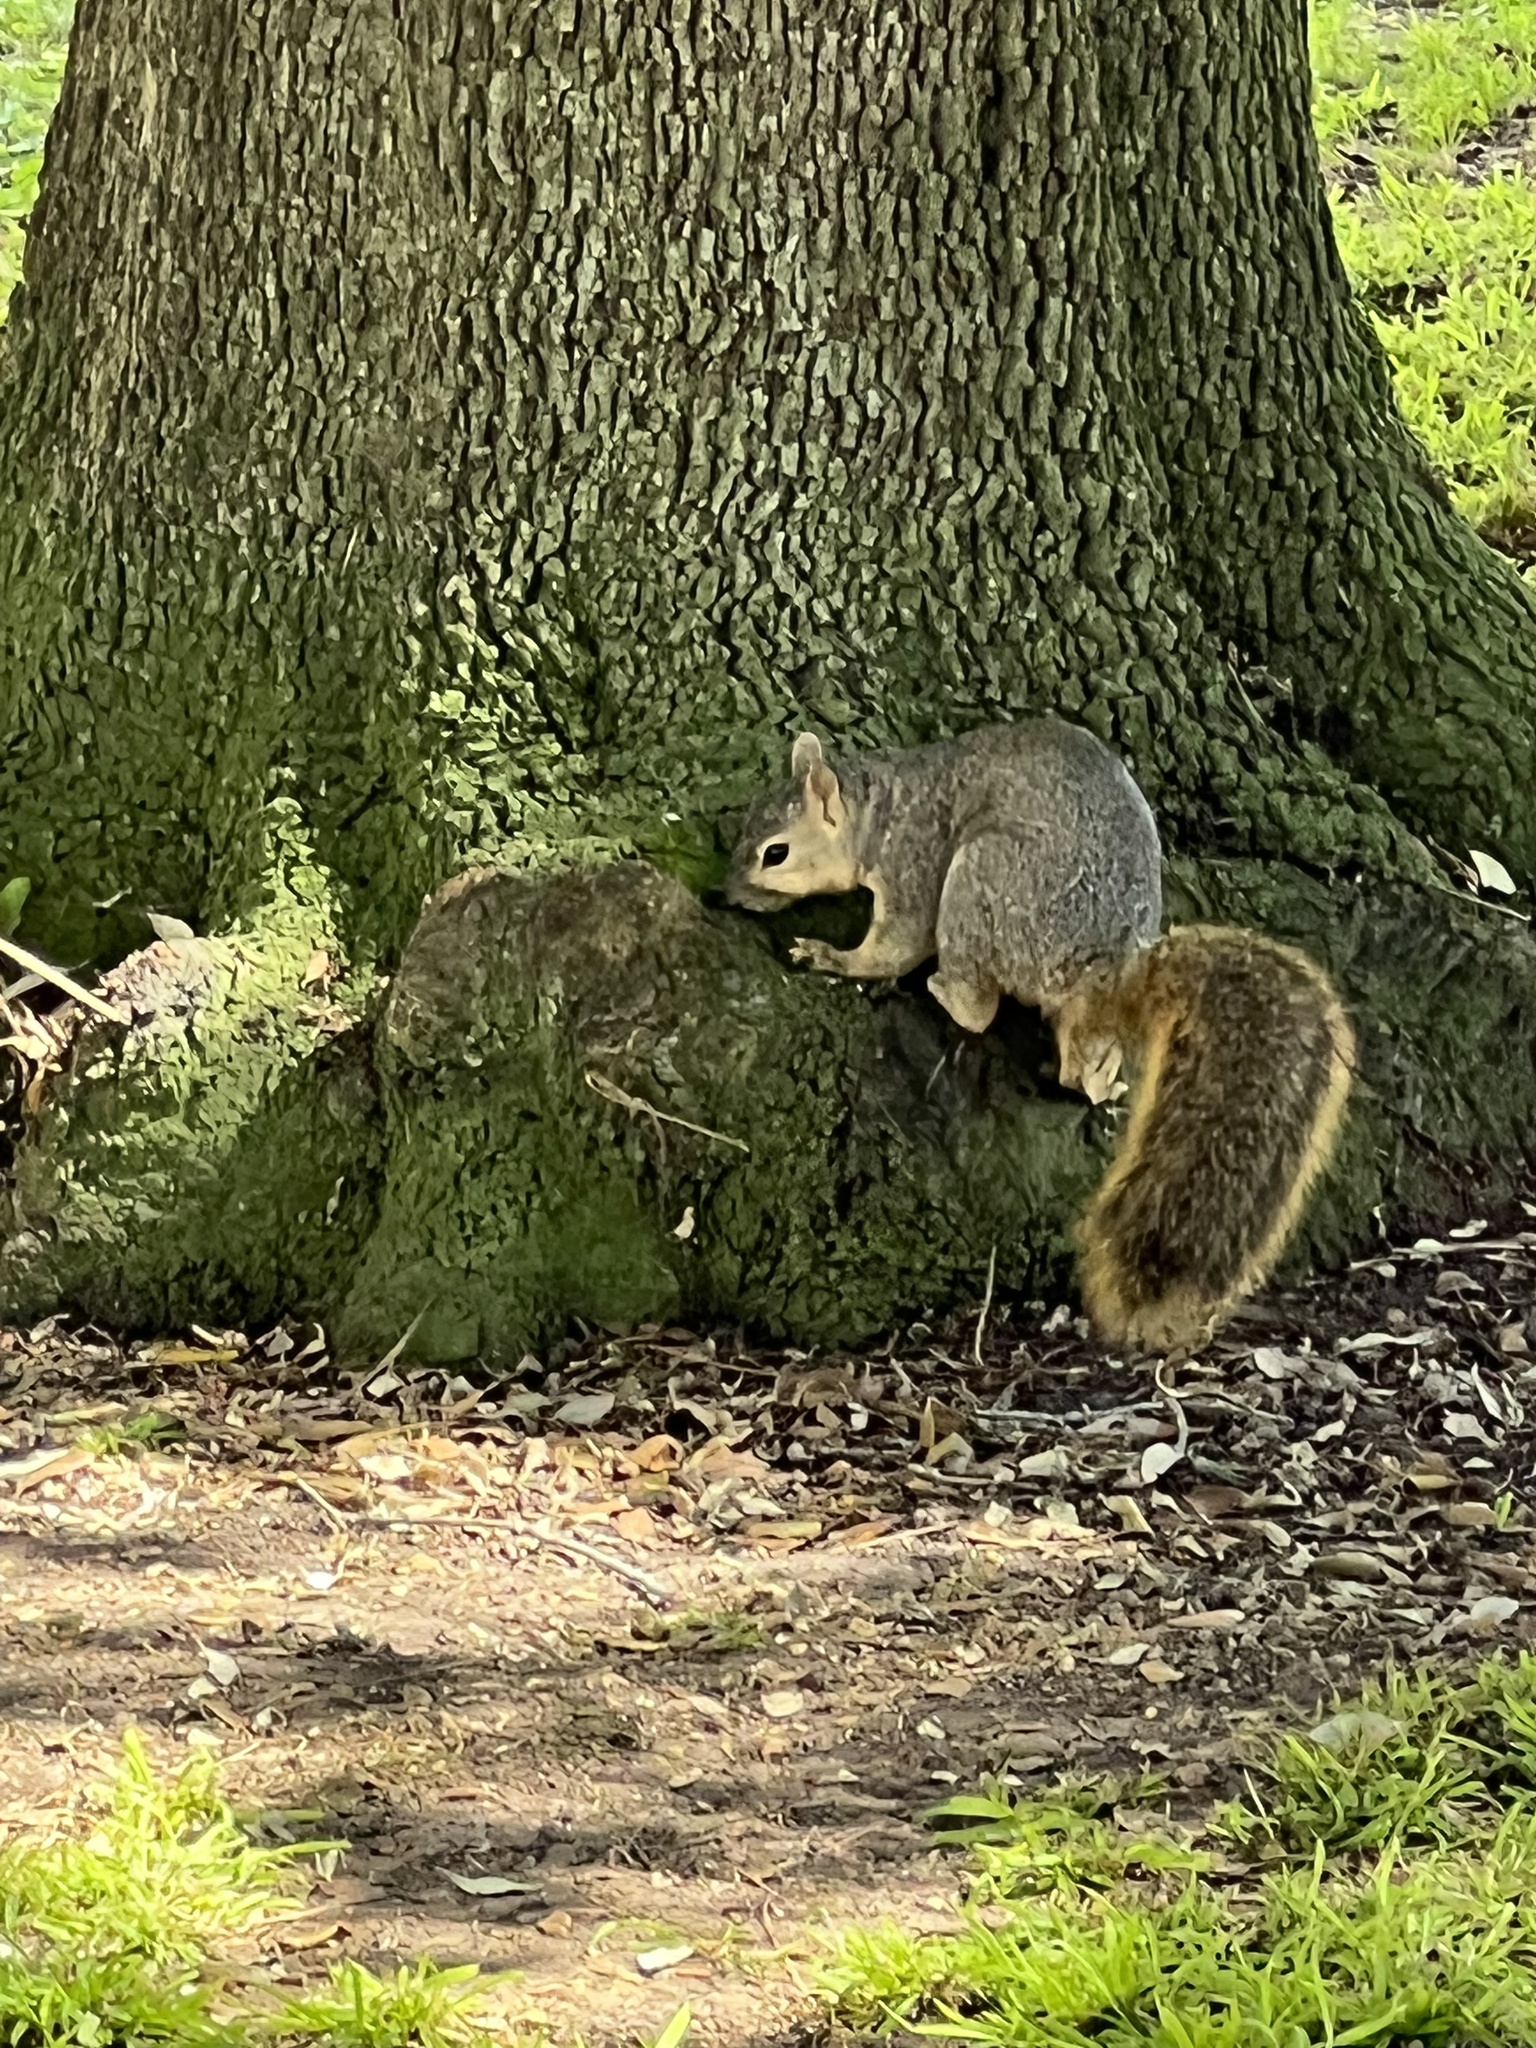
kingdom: Animalia
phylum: Chordata
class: Mammalia
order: Rodentia
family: Sciuridae
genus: Sciurus
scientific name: Sciurus niger
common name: Fox squirrel
